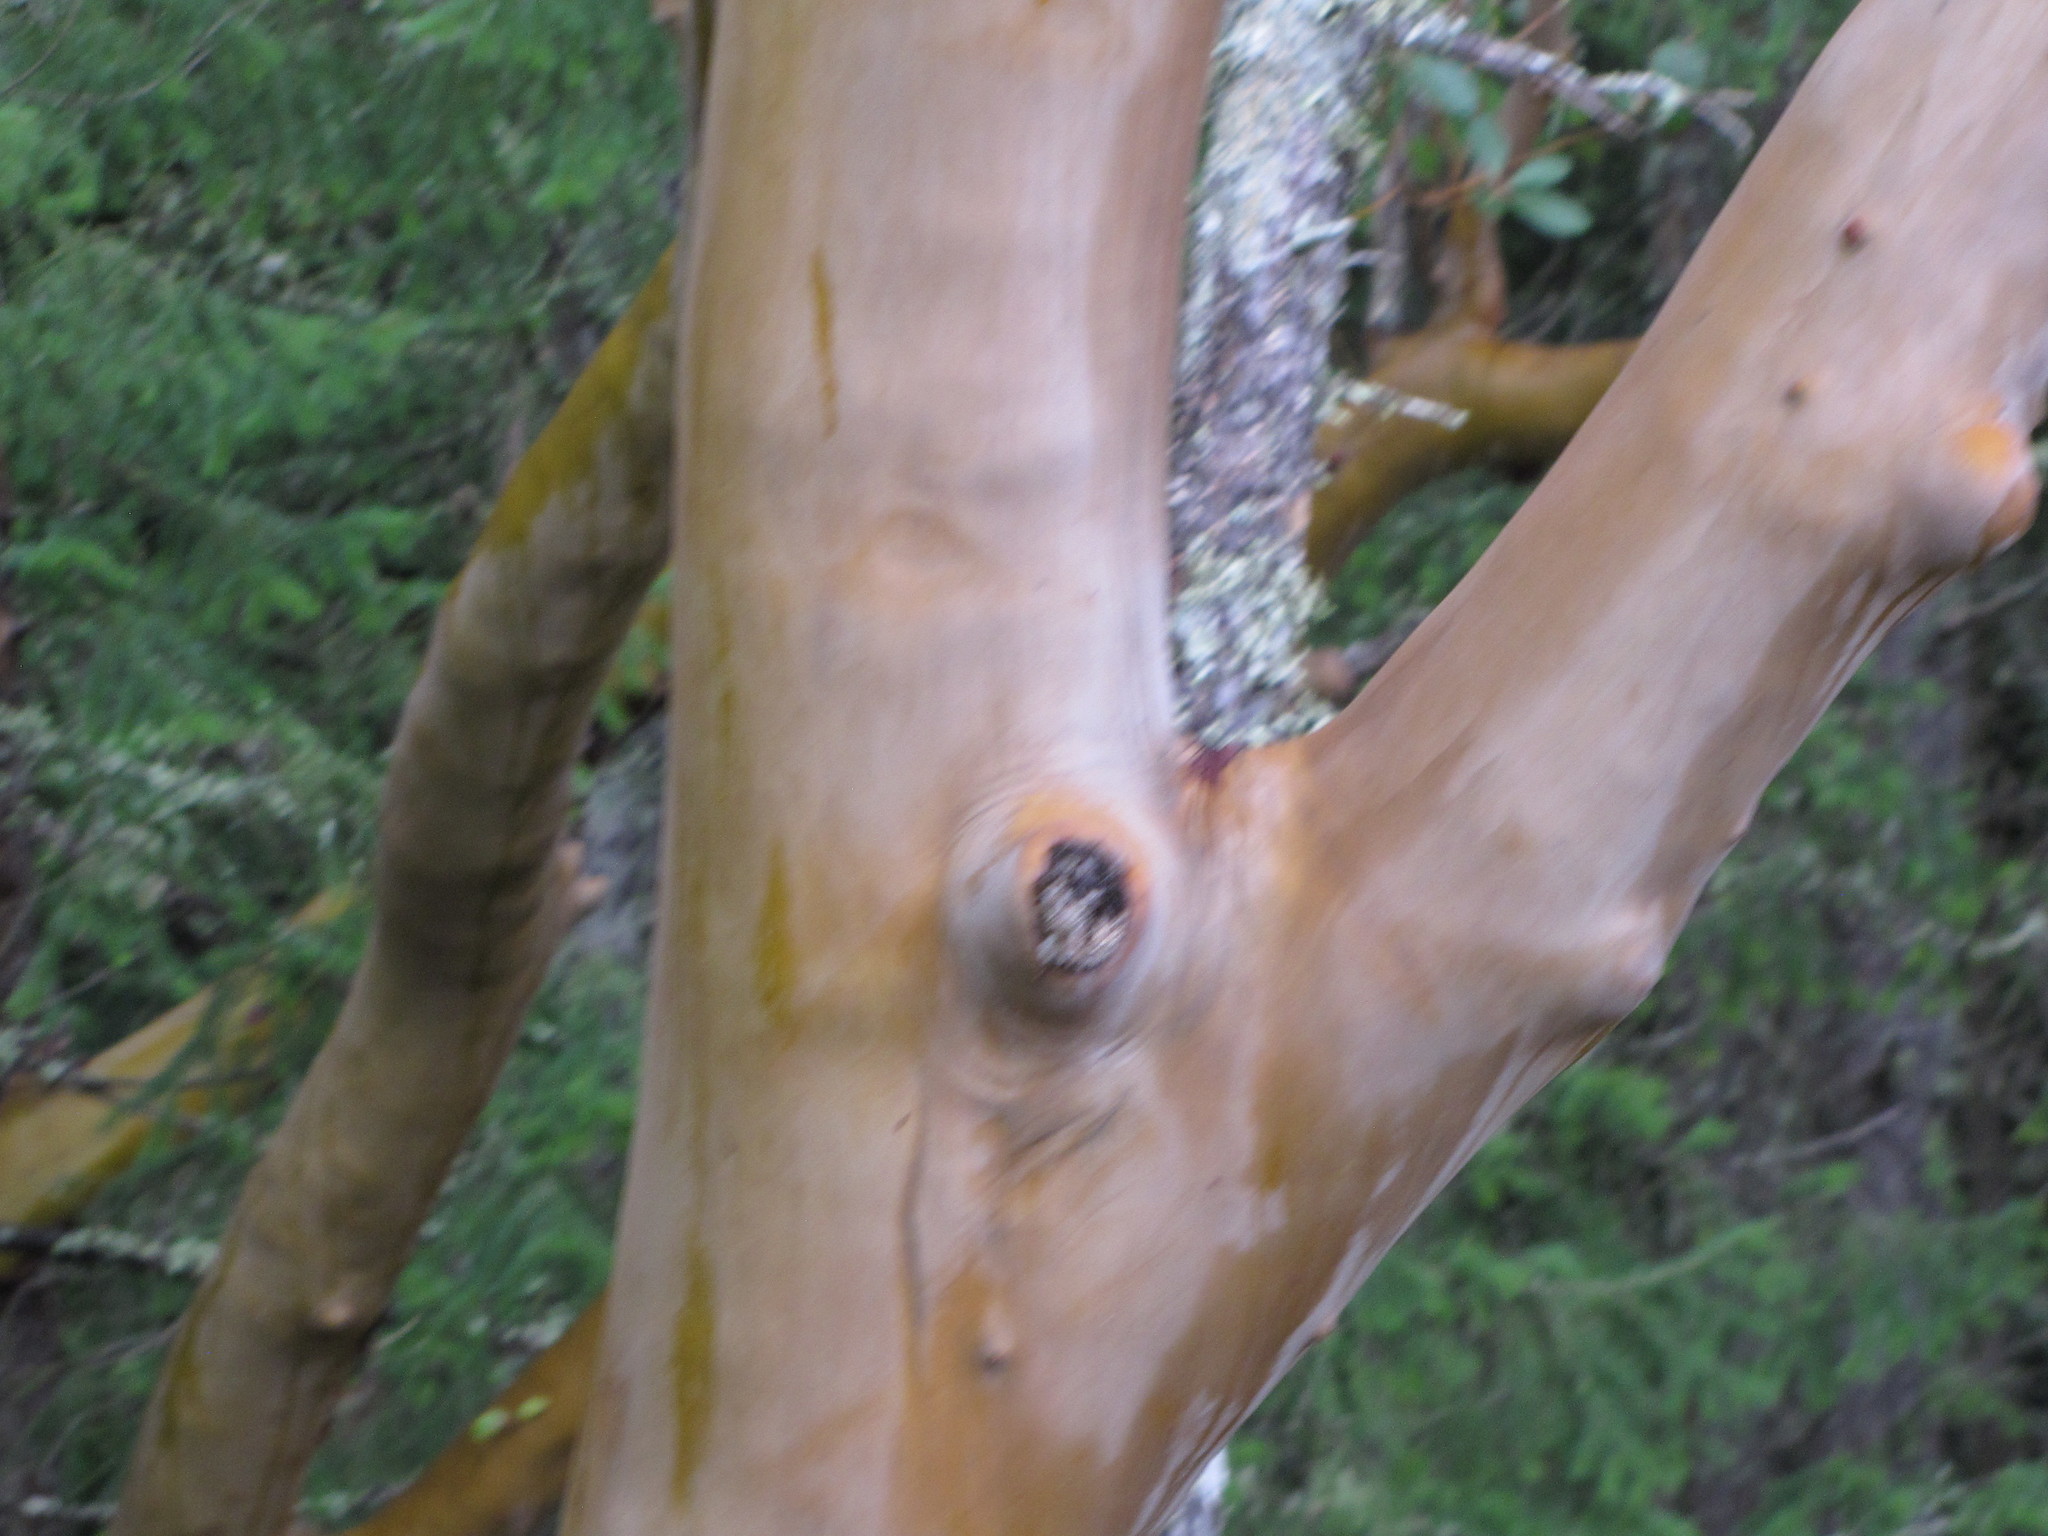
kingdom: Plantae
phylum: Tracheophyta
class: Magnoliopsida
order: Ericales
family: Ericaceae
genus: Arbutus
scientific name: Arbutus menziesii
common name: Pacific madrone
